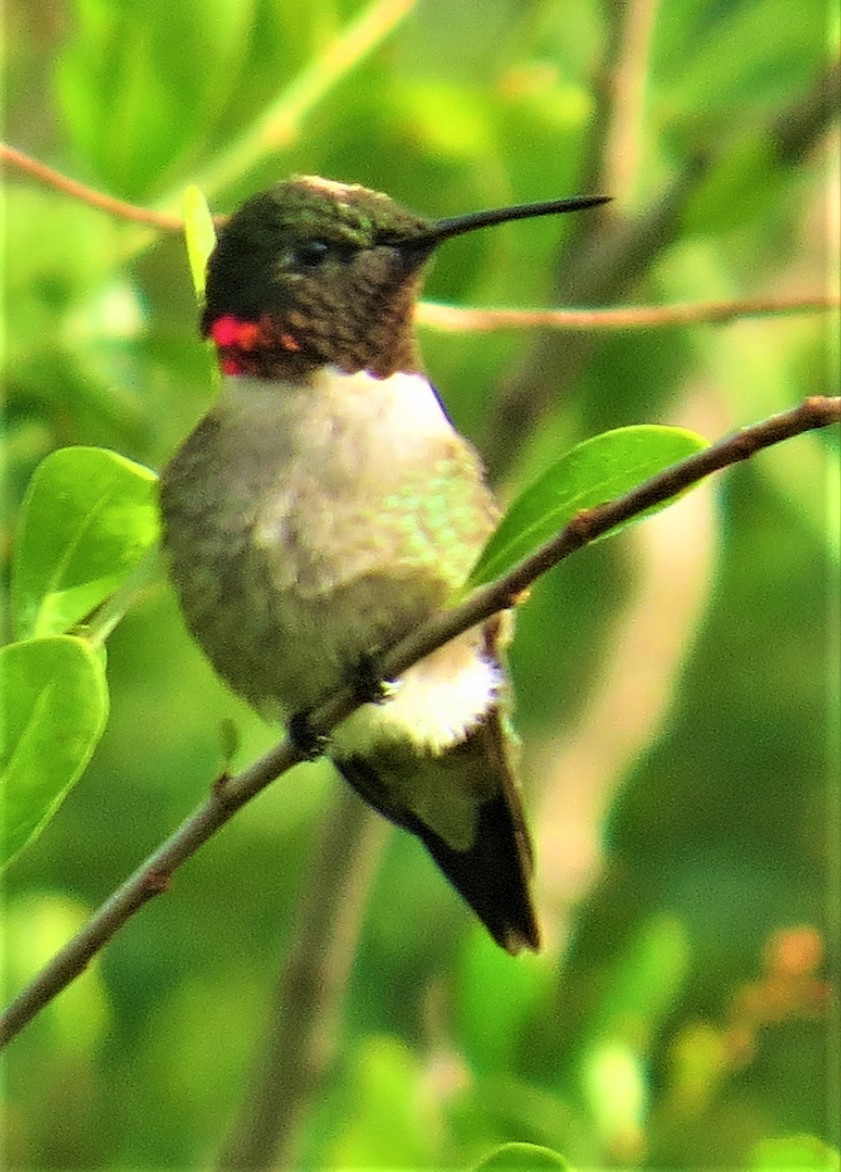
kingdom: Animalia
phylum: Chordata
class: Aves
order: Apodiformes
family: Trochilidae
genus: Archilochus
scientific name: Archilochus colubris
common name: Ruby-throated hummingbird
